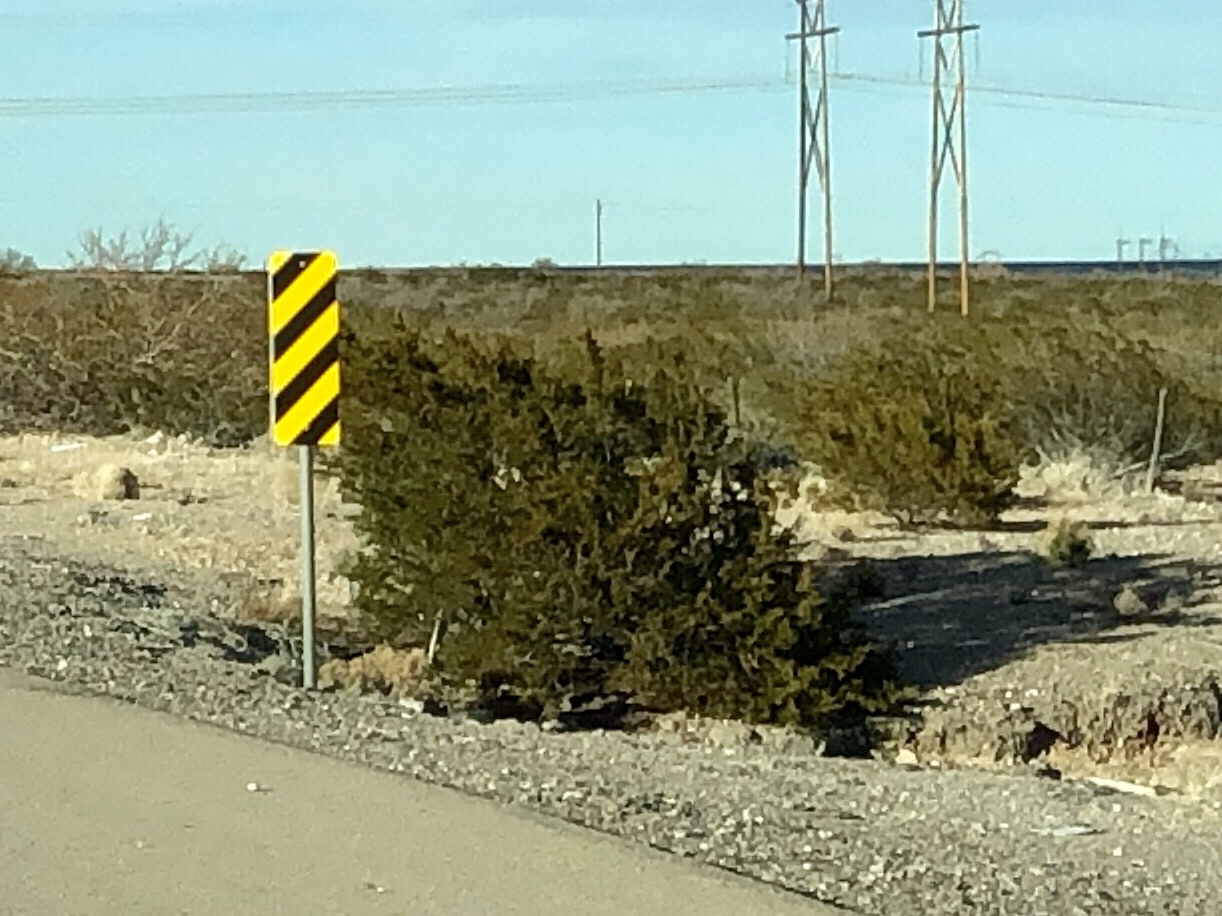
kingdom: Plantae
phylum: Tracheophyta
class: Magnoliopsida
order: Zygophyllales
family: Zygophyllaceae
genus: Larrea
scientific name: Larrea tridentata
